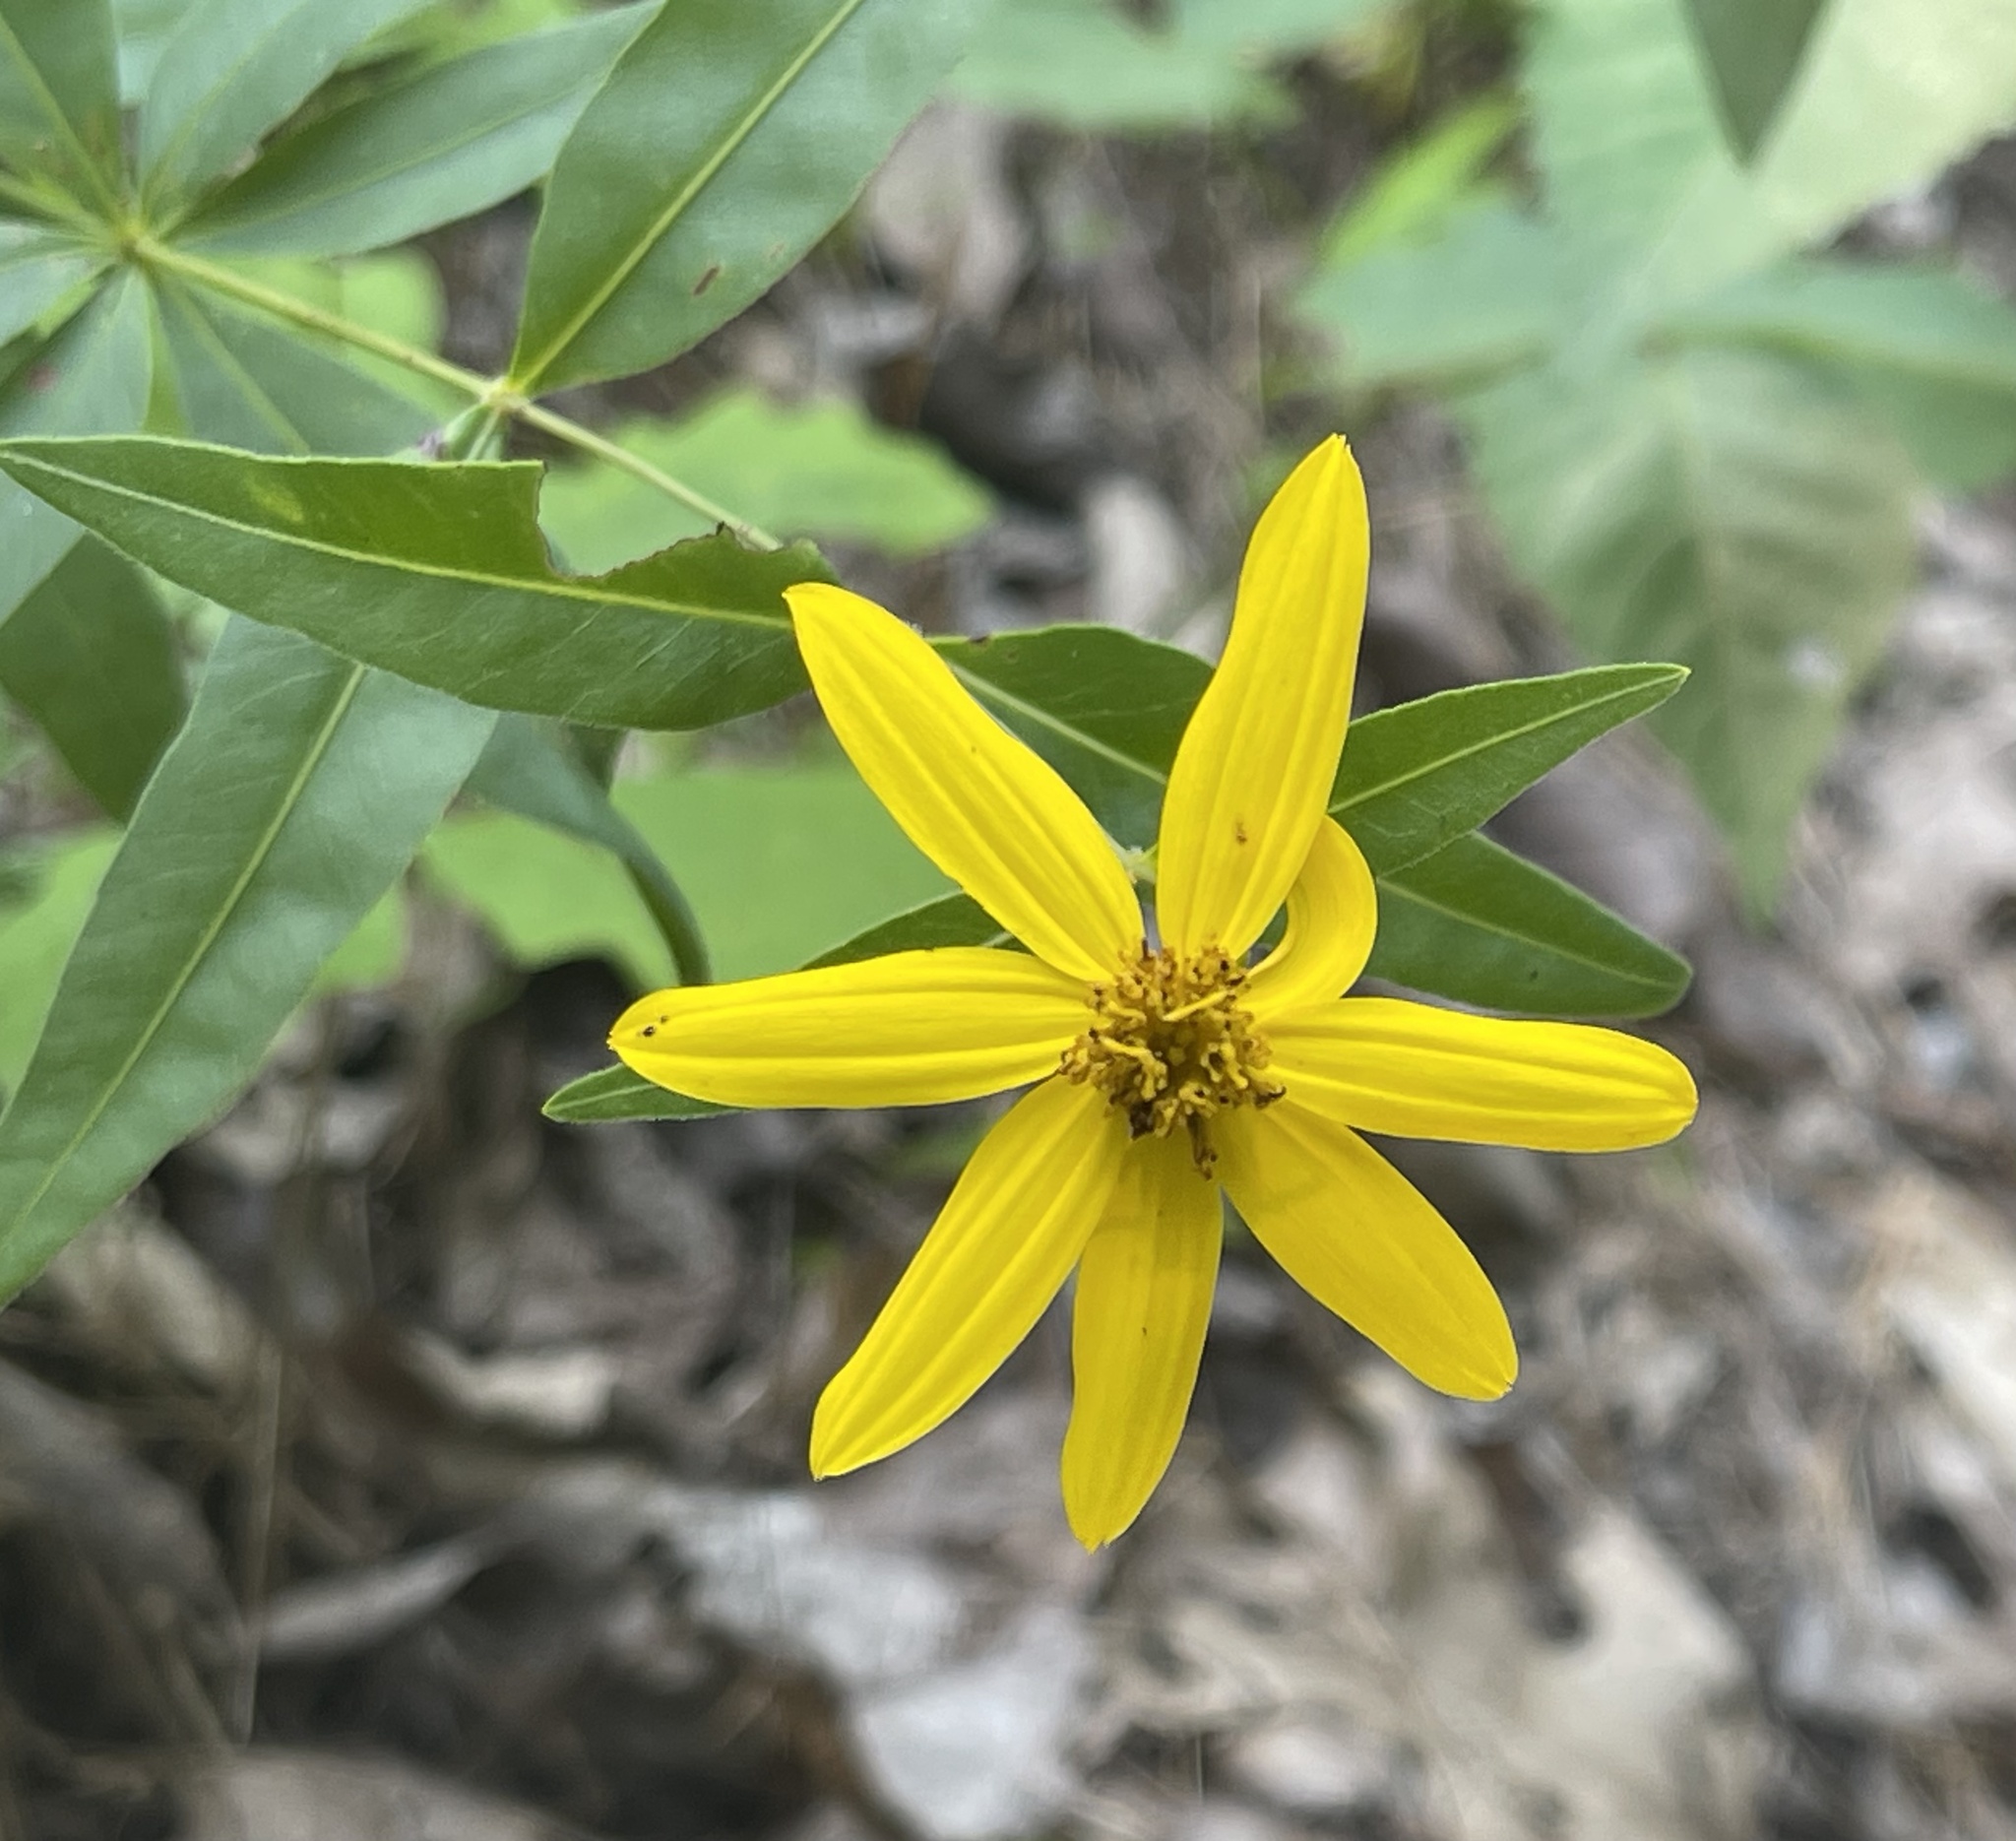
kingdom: Plantae
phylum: Tracheophyta
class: Magnoliopsida
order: Asterales
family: Asteraceae
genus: Coreopsis
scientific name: Coreopsis major
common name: Forest tickseed
